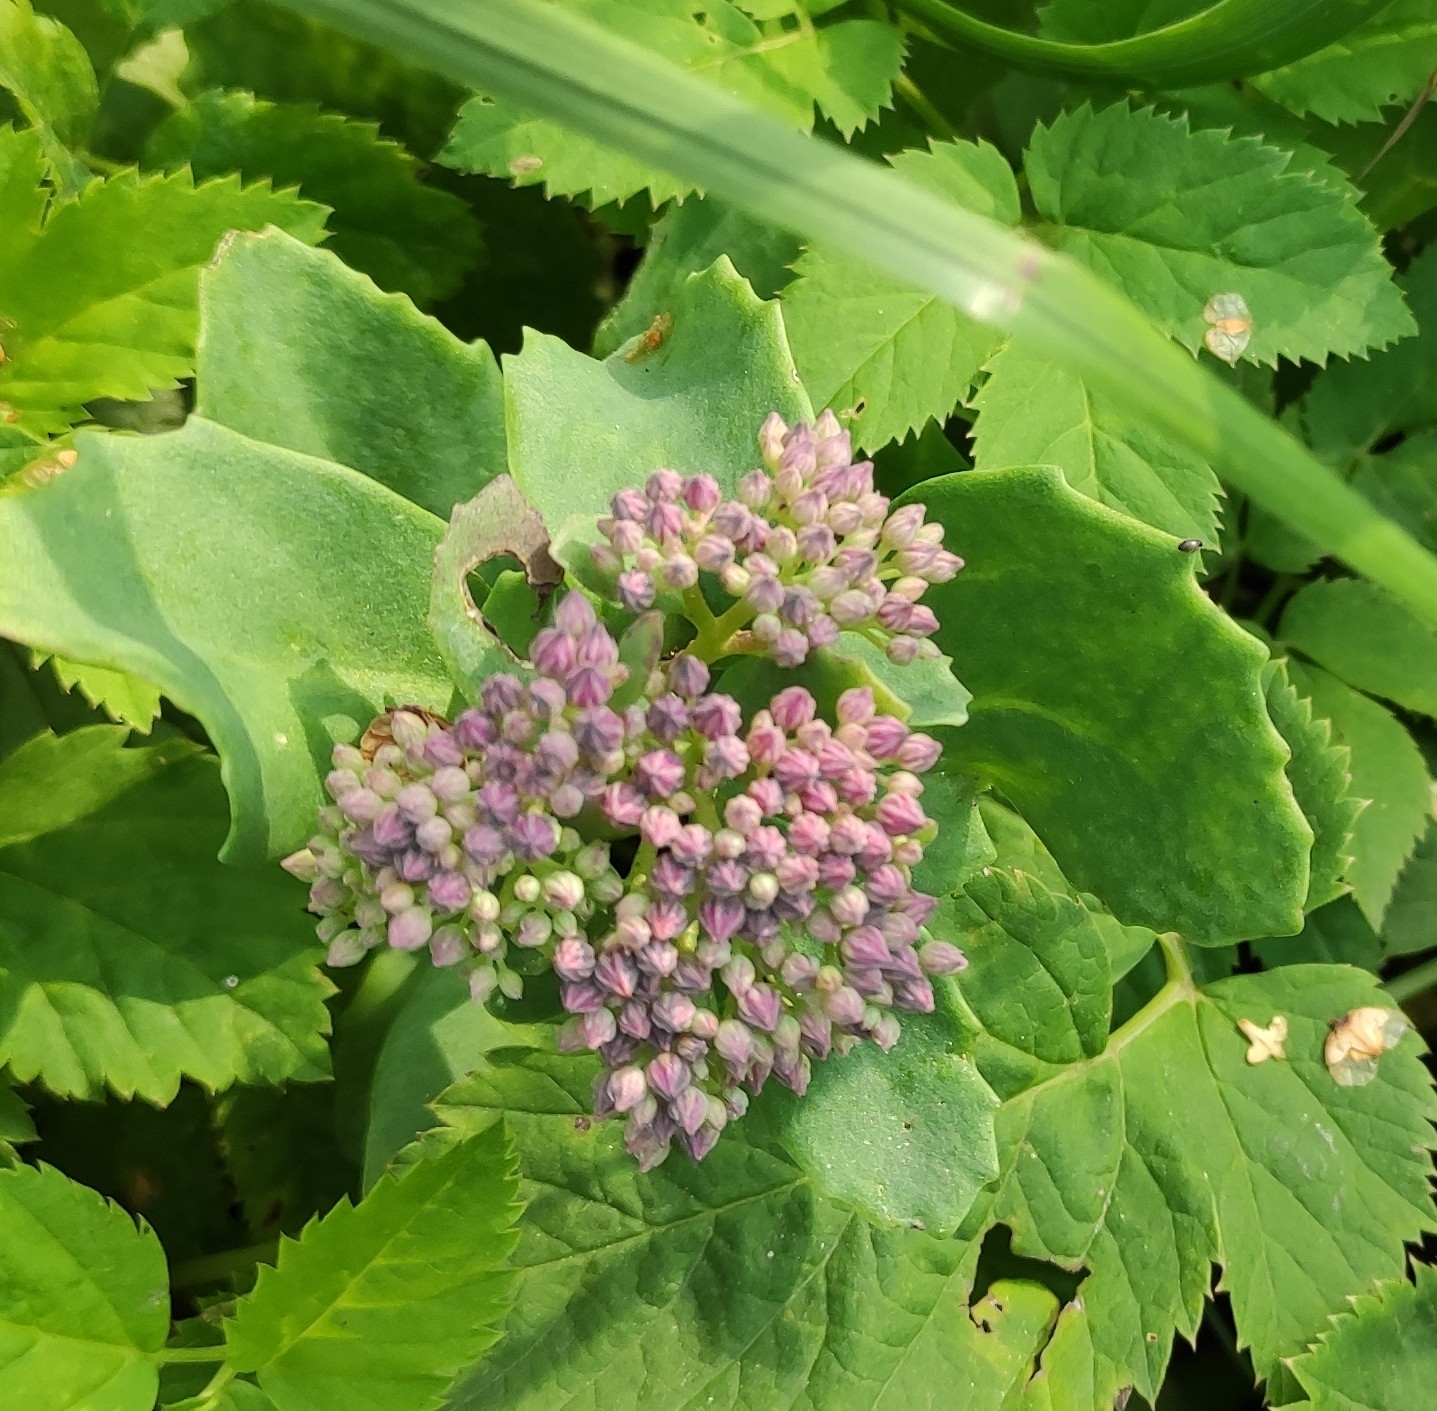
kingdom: Plantae
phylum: Tracheophyta
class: Magnoliopsida
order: Saxifragales
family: Crassulaceae
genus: Hylotelephium
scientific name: Hylotelephium telephium
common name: Live-forever
